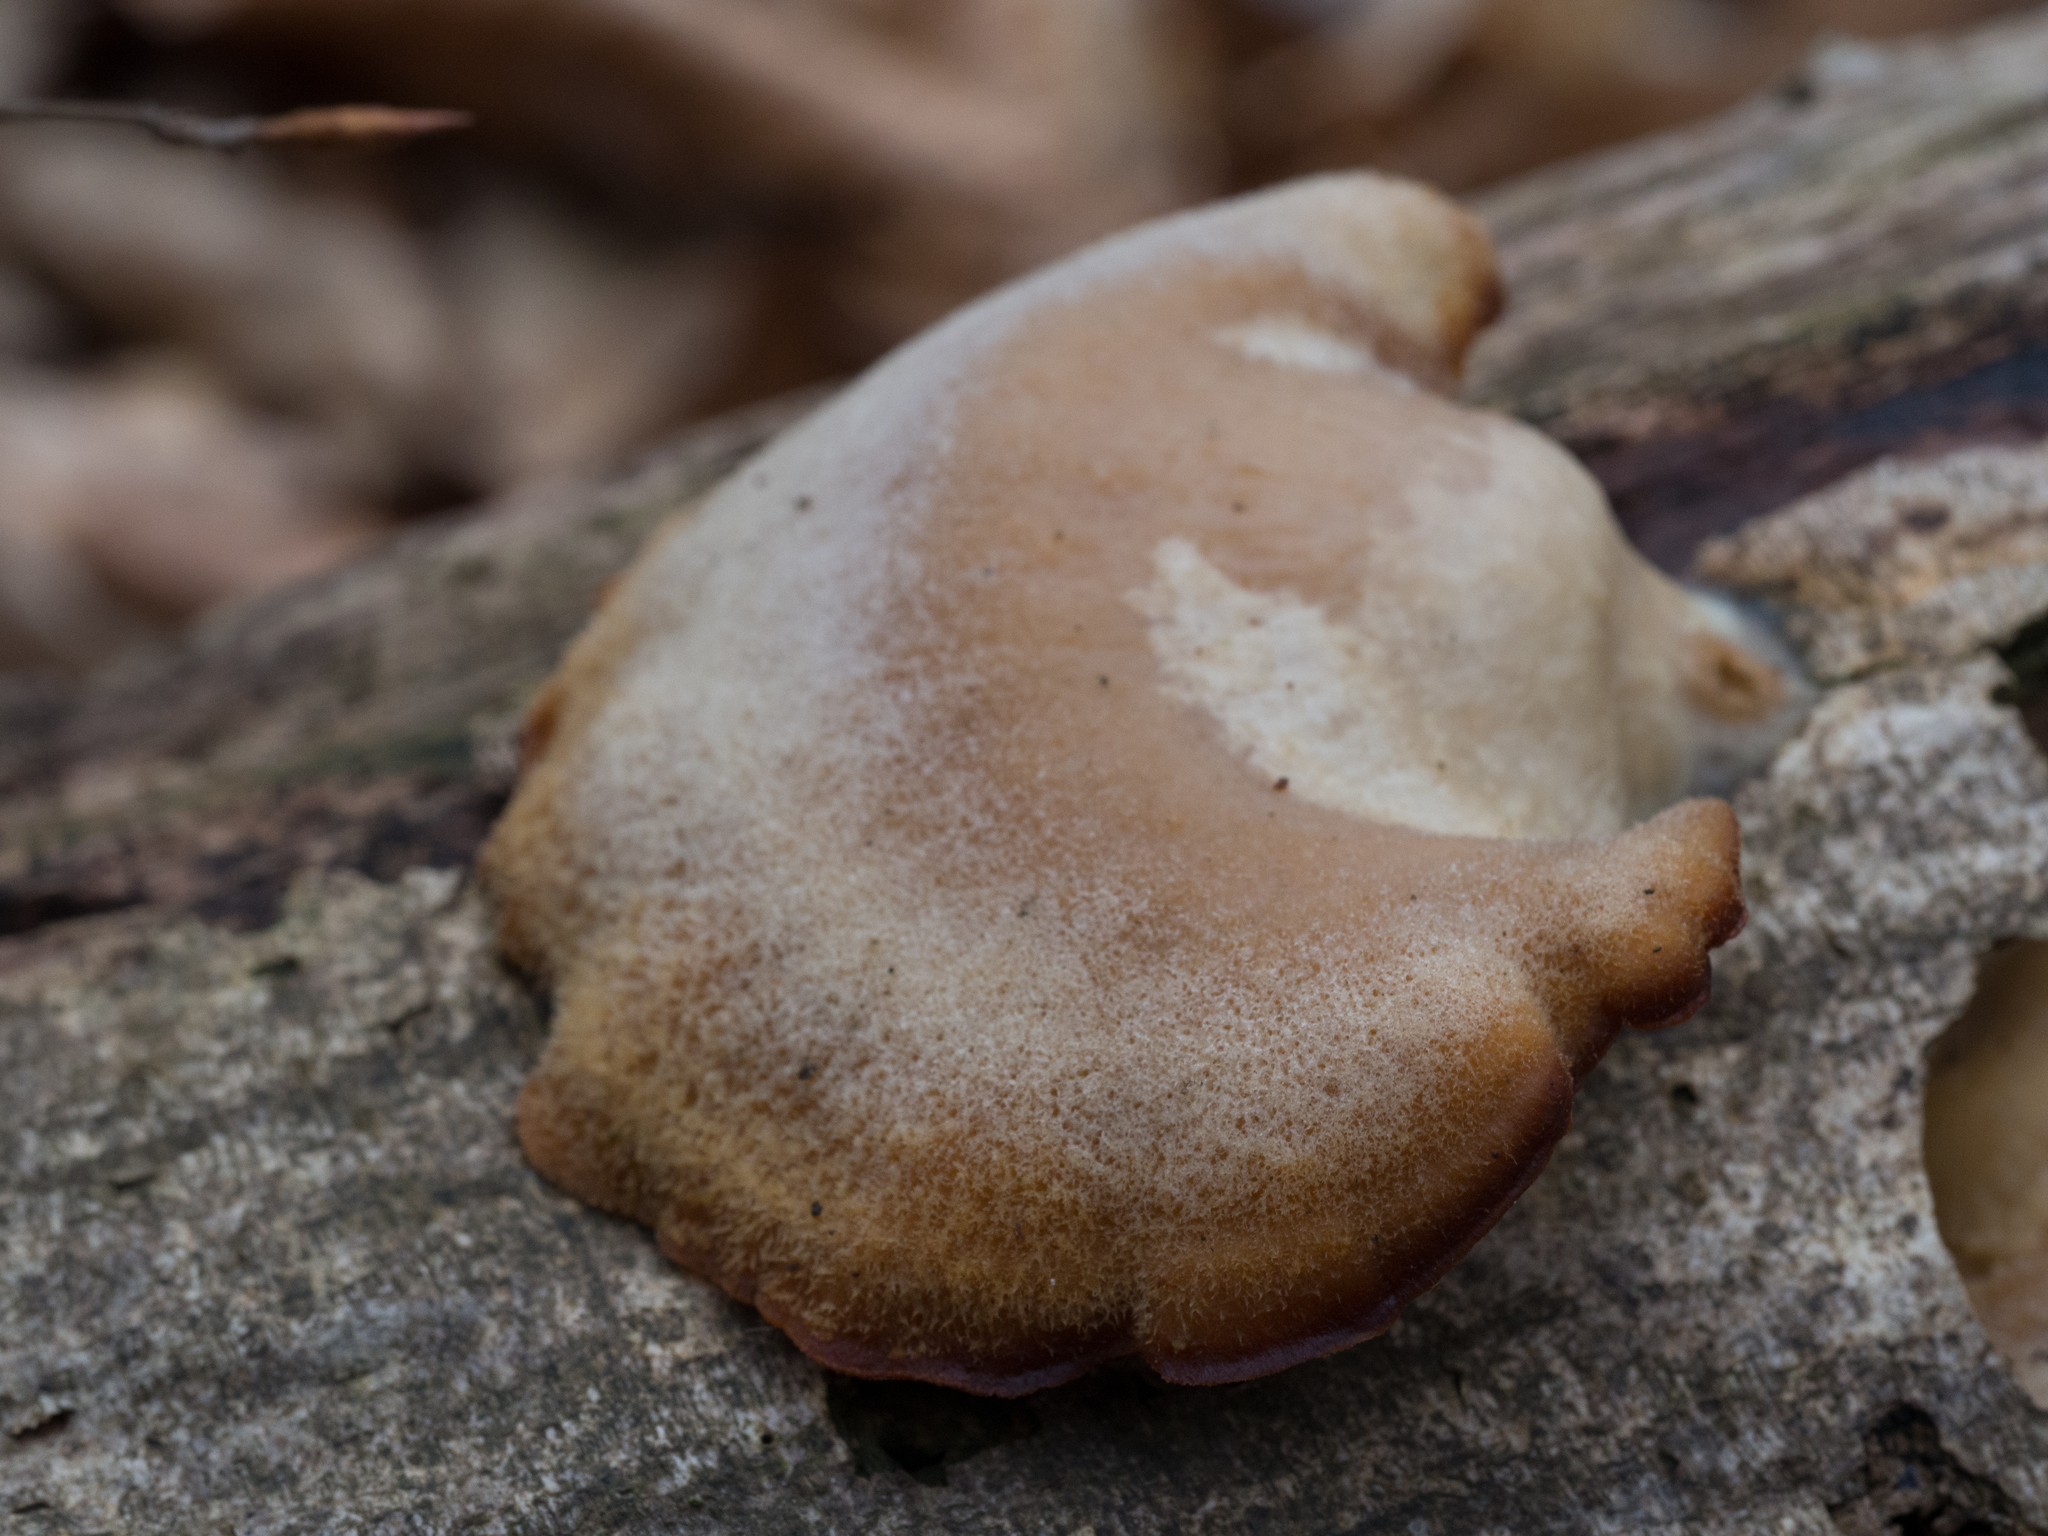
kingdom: Fungi
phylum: Basidiomycota
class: Agaricomycetes
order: Agaricales
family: Phyllotopsidaceae
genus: Phyllotopsis
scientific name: Phyllotopsis nidulans
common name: Orange mock oyster
